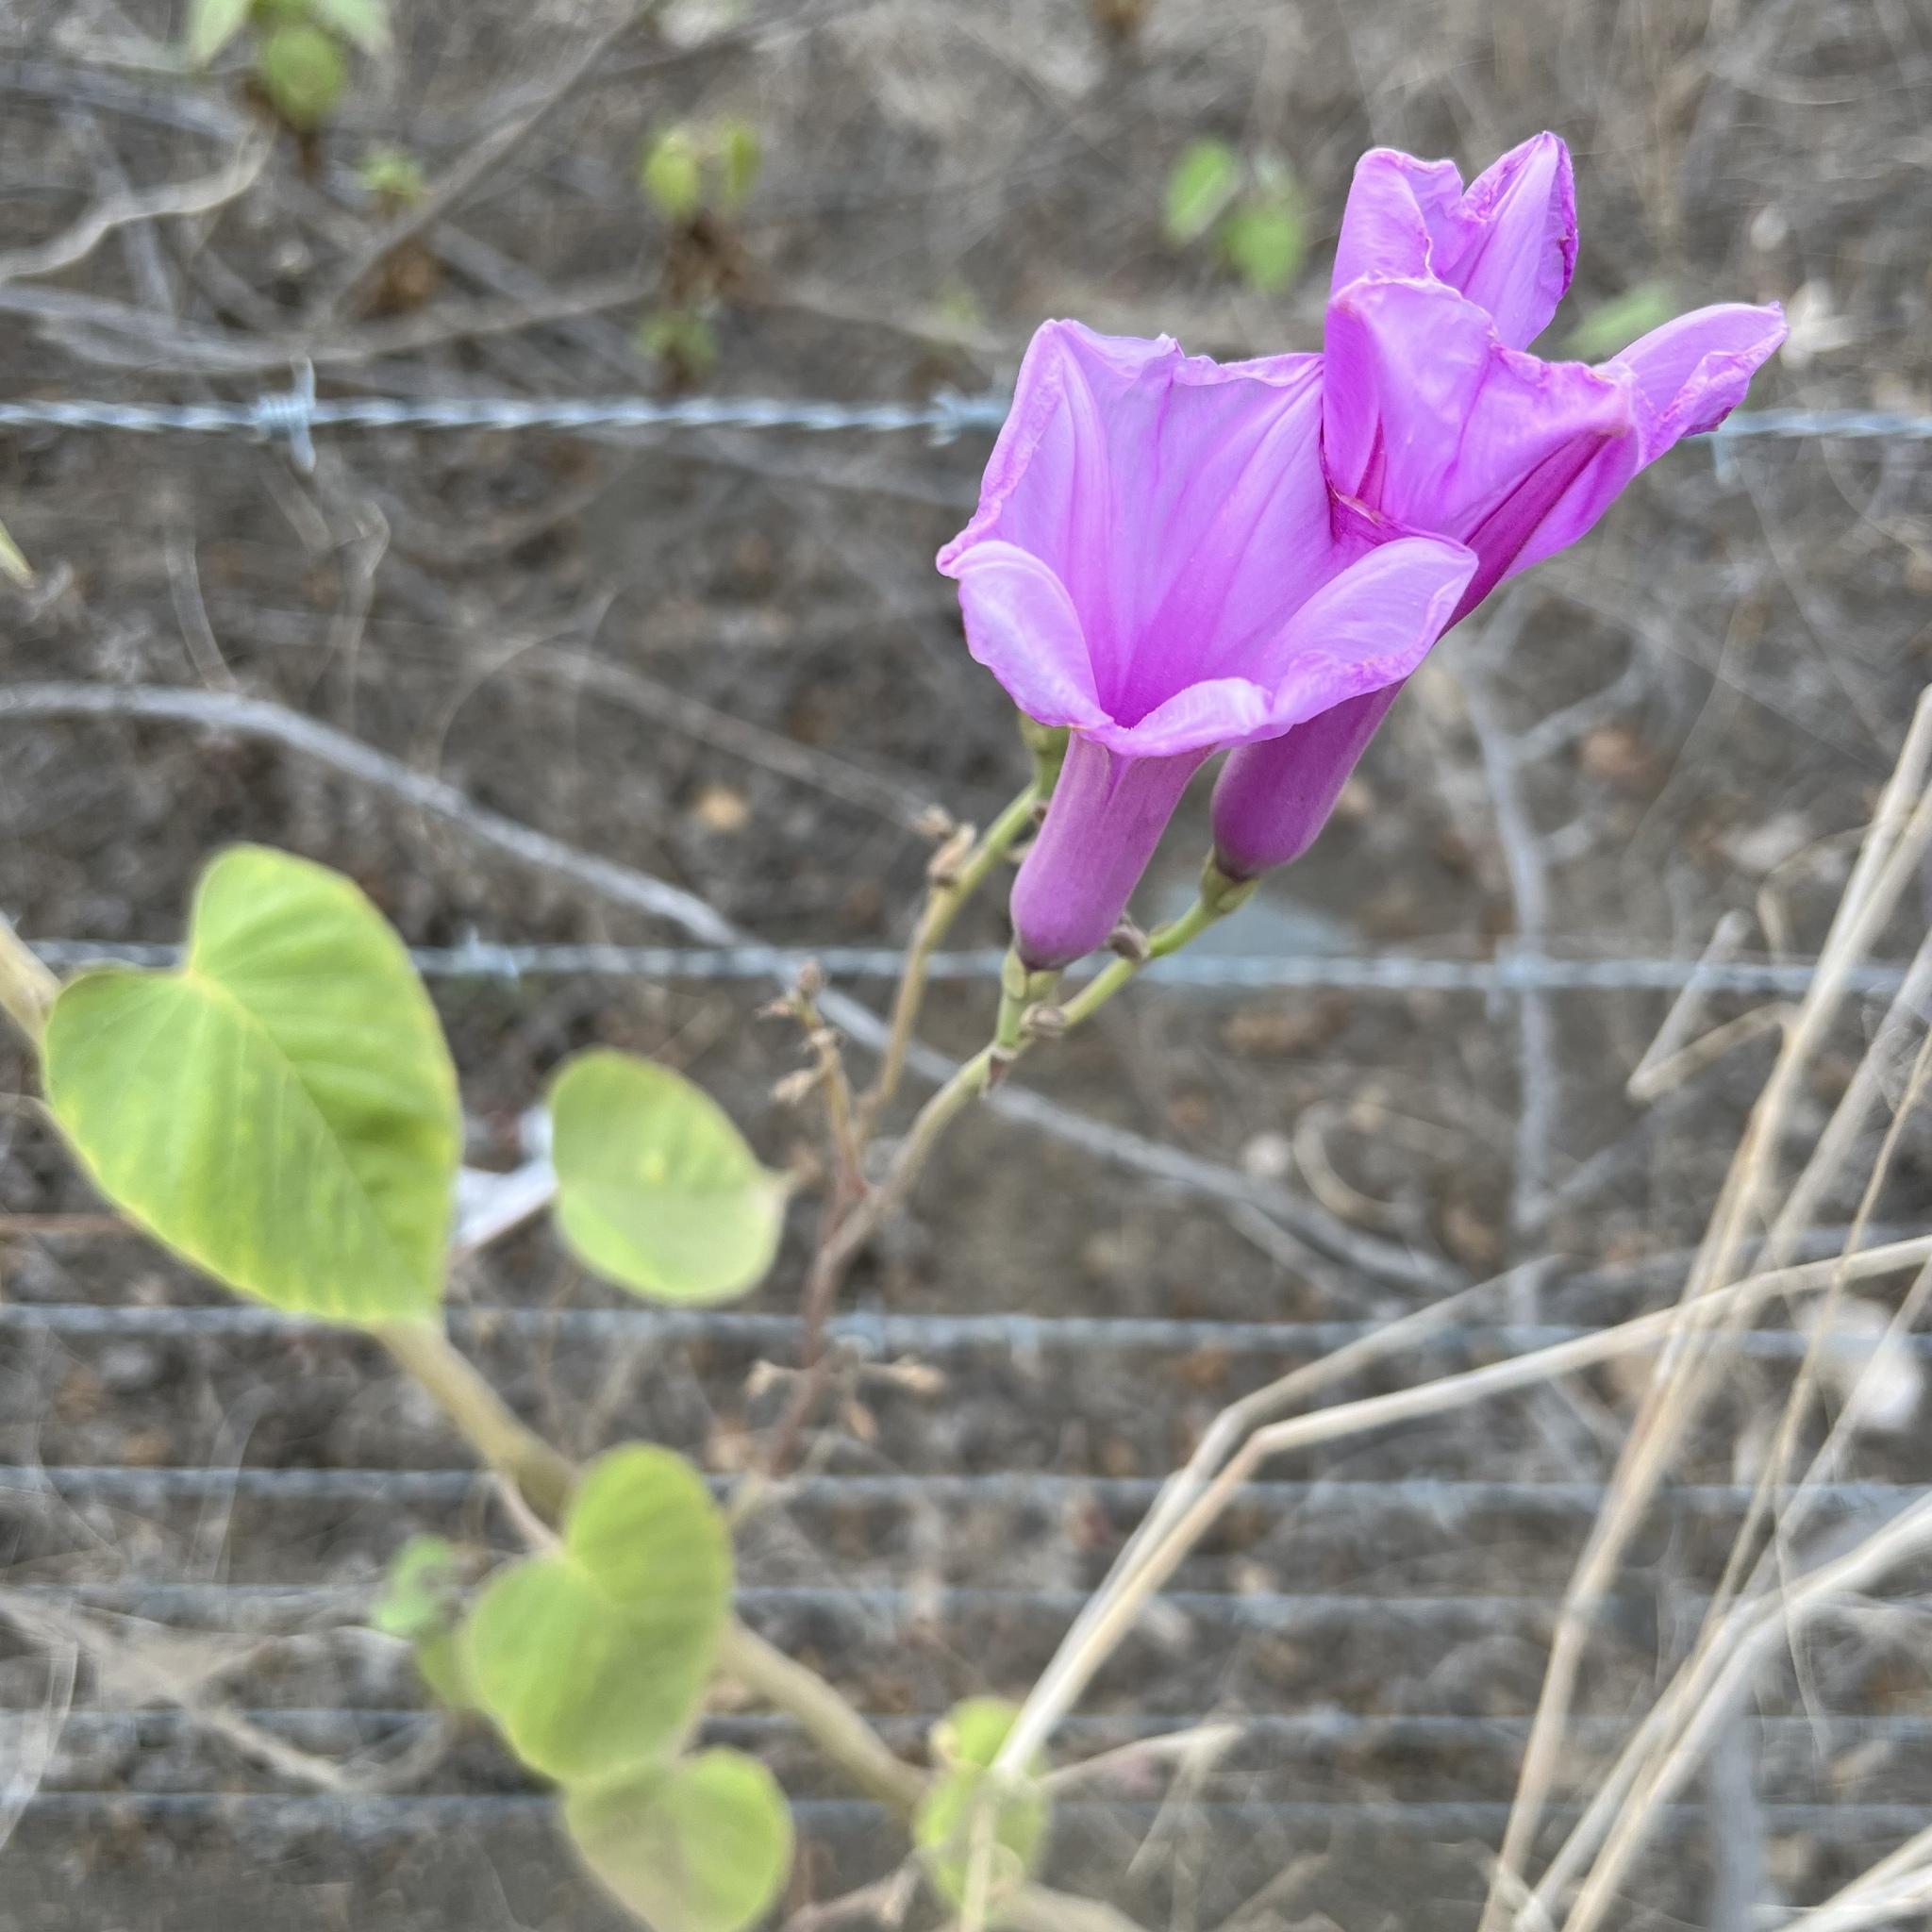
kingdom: Plantae
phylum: Tracheophyta
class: Magnoliopsida
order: Solanales
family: Convolvulaceae
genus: Ipomoea
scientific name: Ipomoea carnea
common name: Morning-glory
